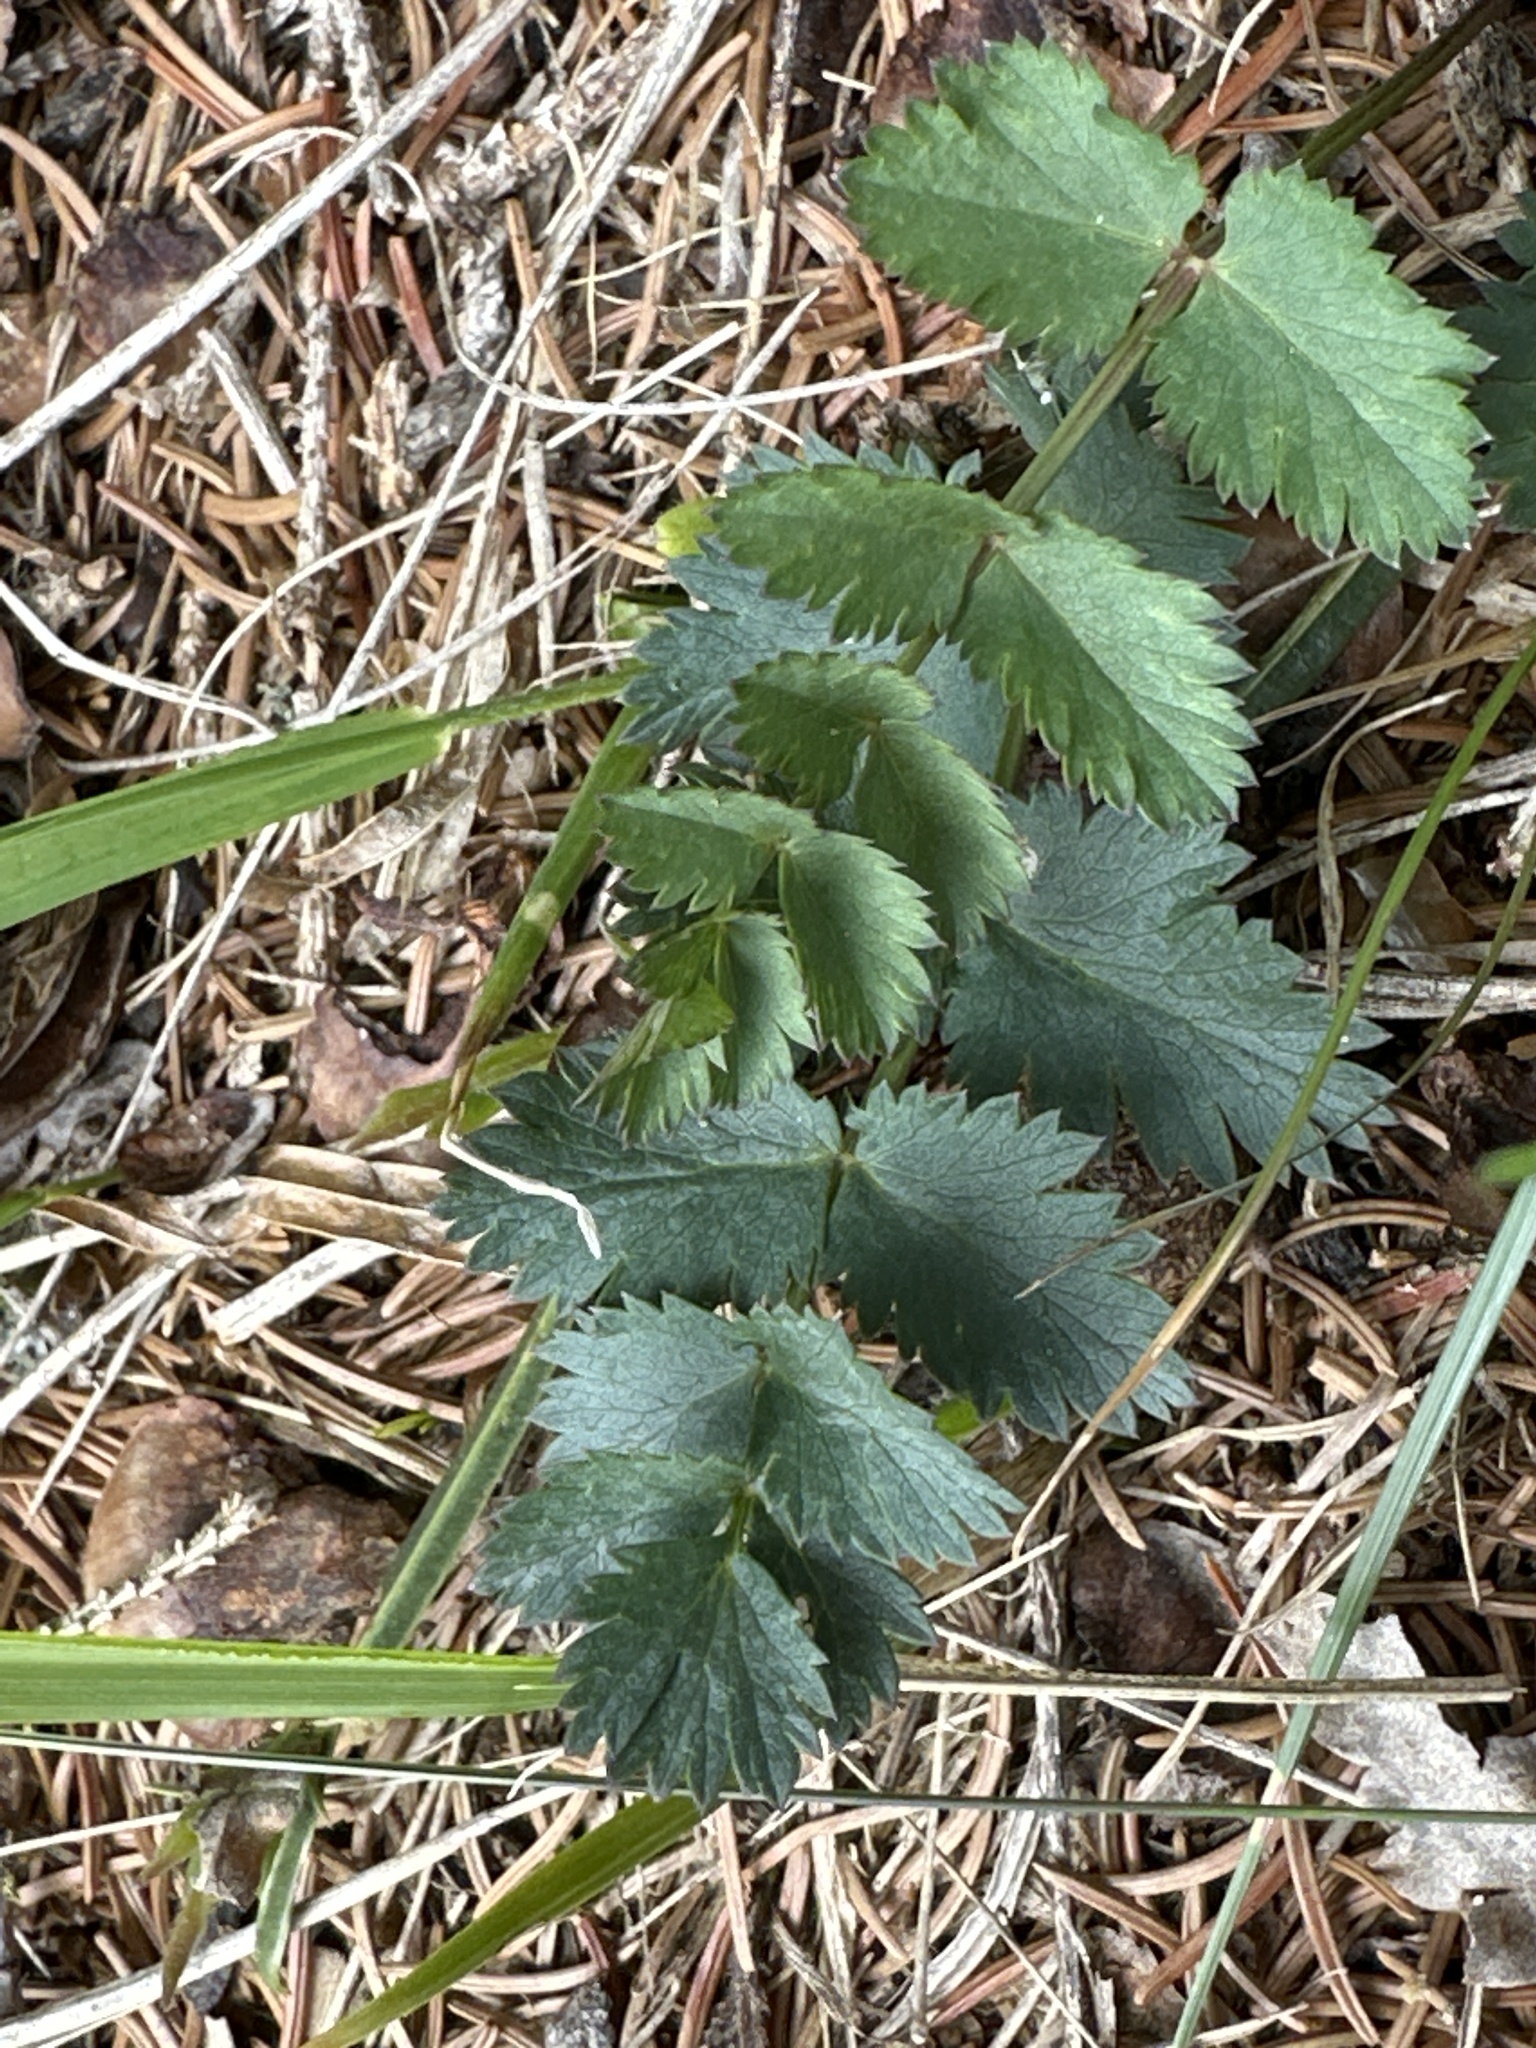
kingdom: Plantae
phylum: Tracheophyta
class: Magnoliopsida
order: Apiales
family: Apiaceae
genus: Pimpinella
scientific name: Pimpinella saxifraga
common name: Burnet-saxifrage
